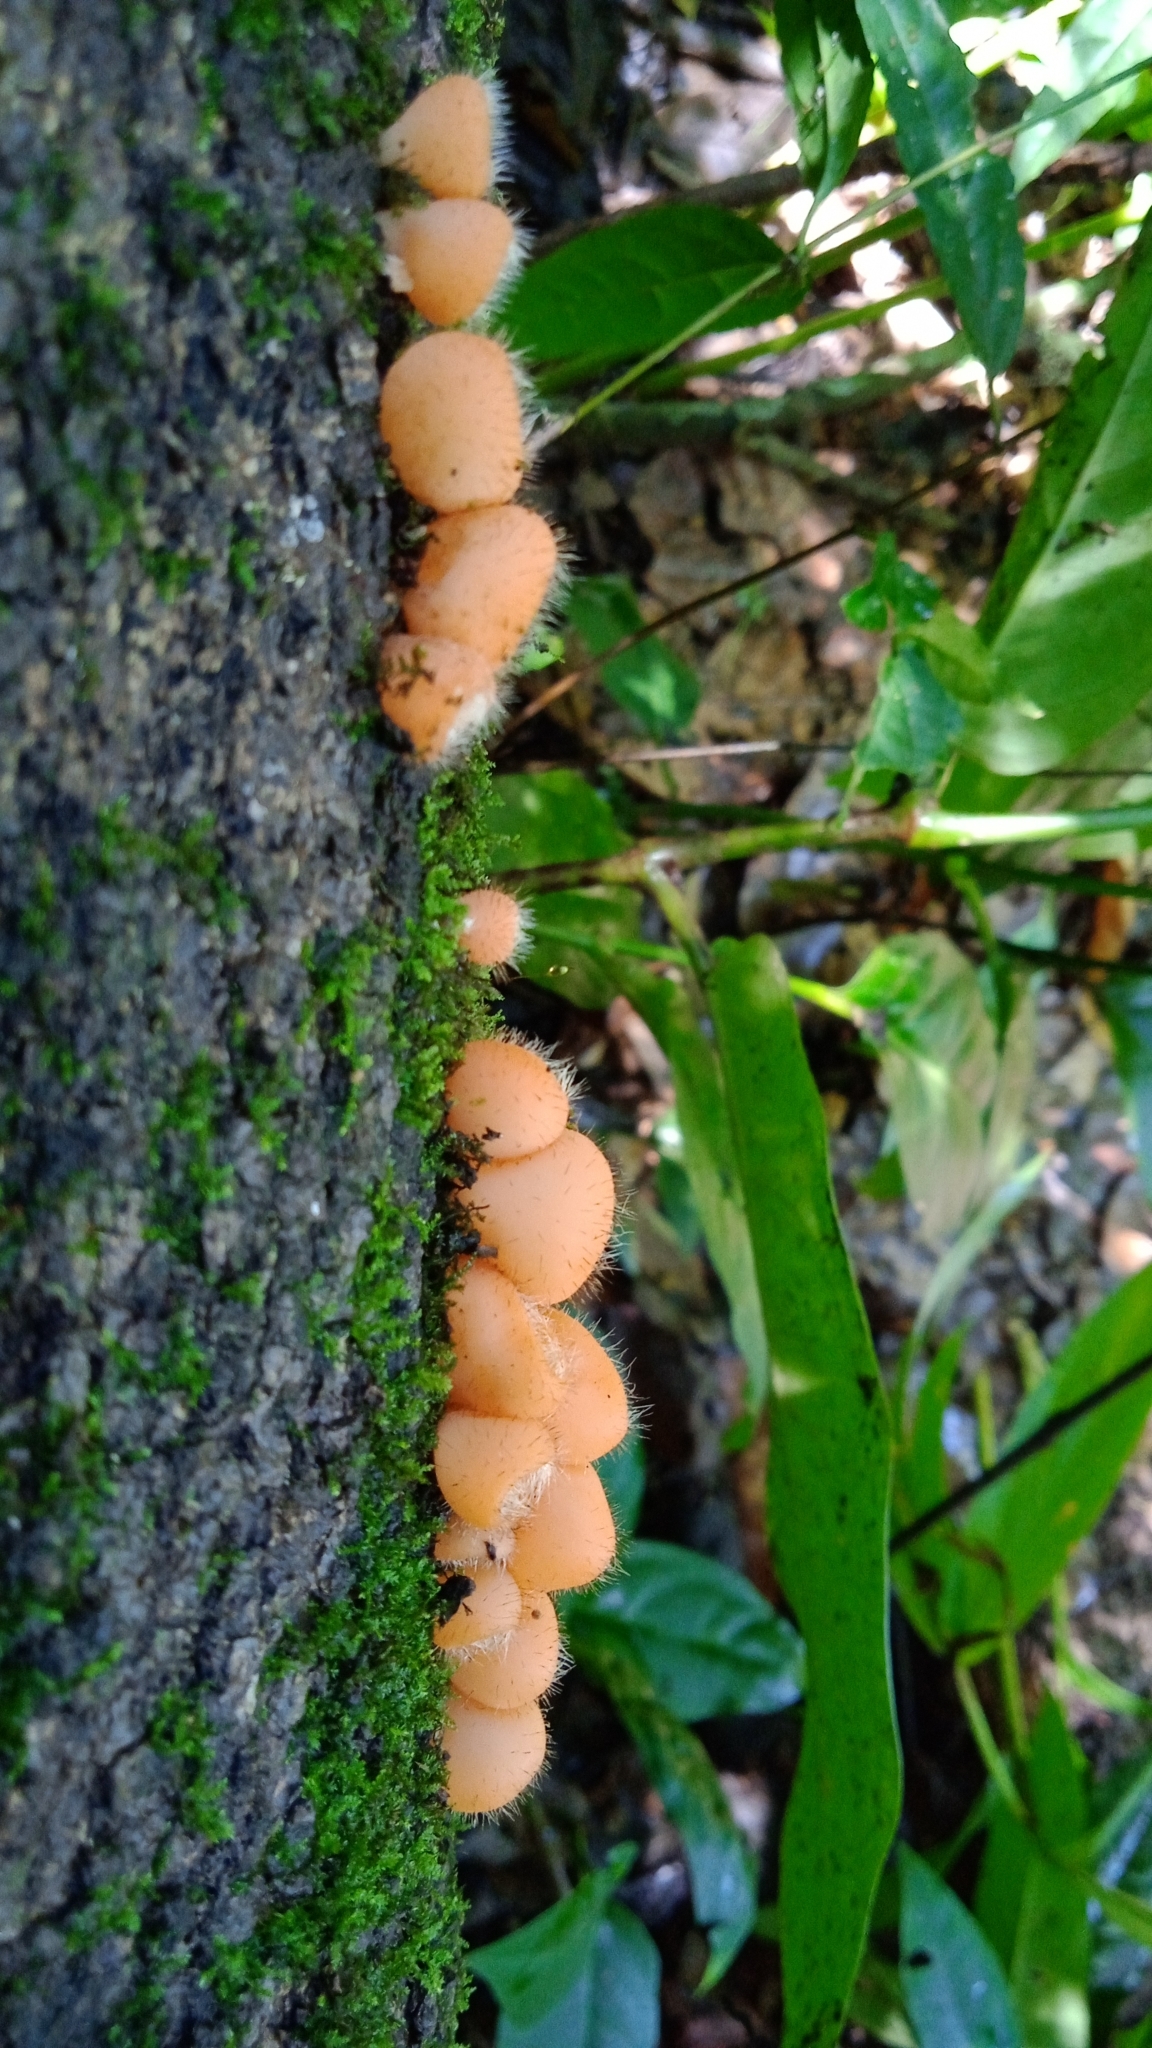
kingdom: Fungi
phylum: Ascomycota
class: Pezizomycetes
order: Pezizales
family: Sarcoscyphaceae
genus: Cookeina
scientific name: Cookeina tricholoma
